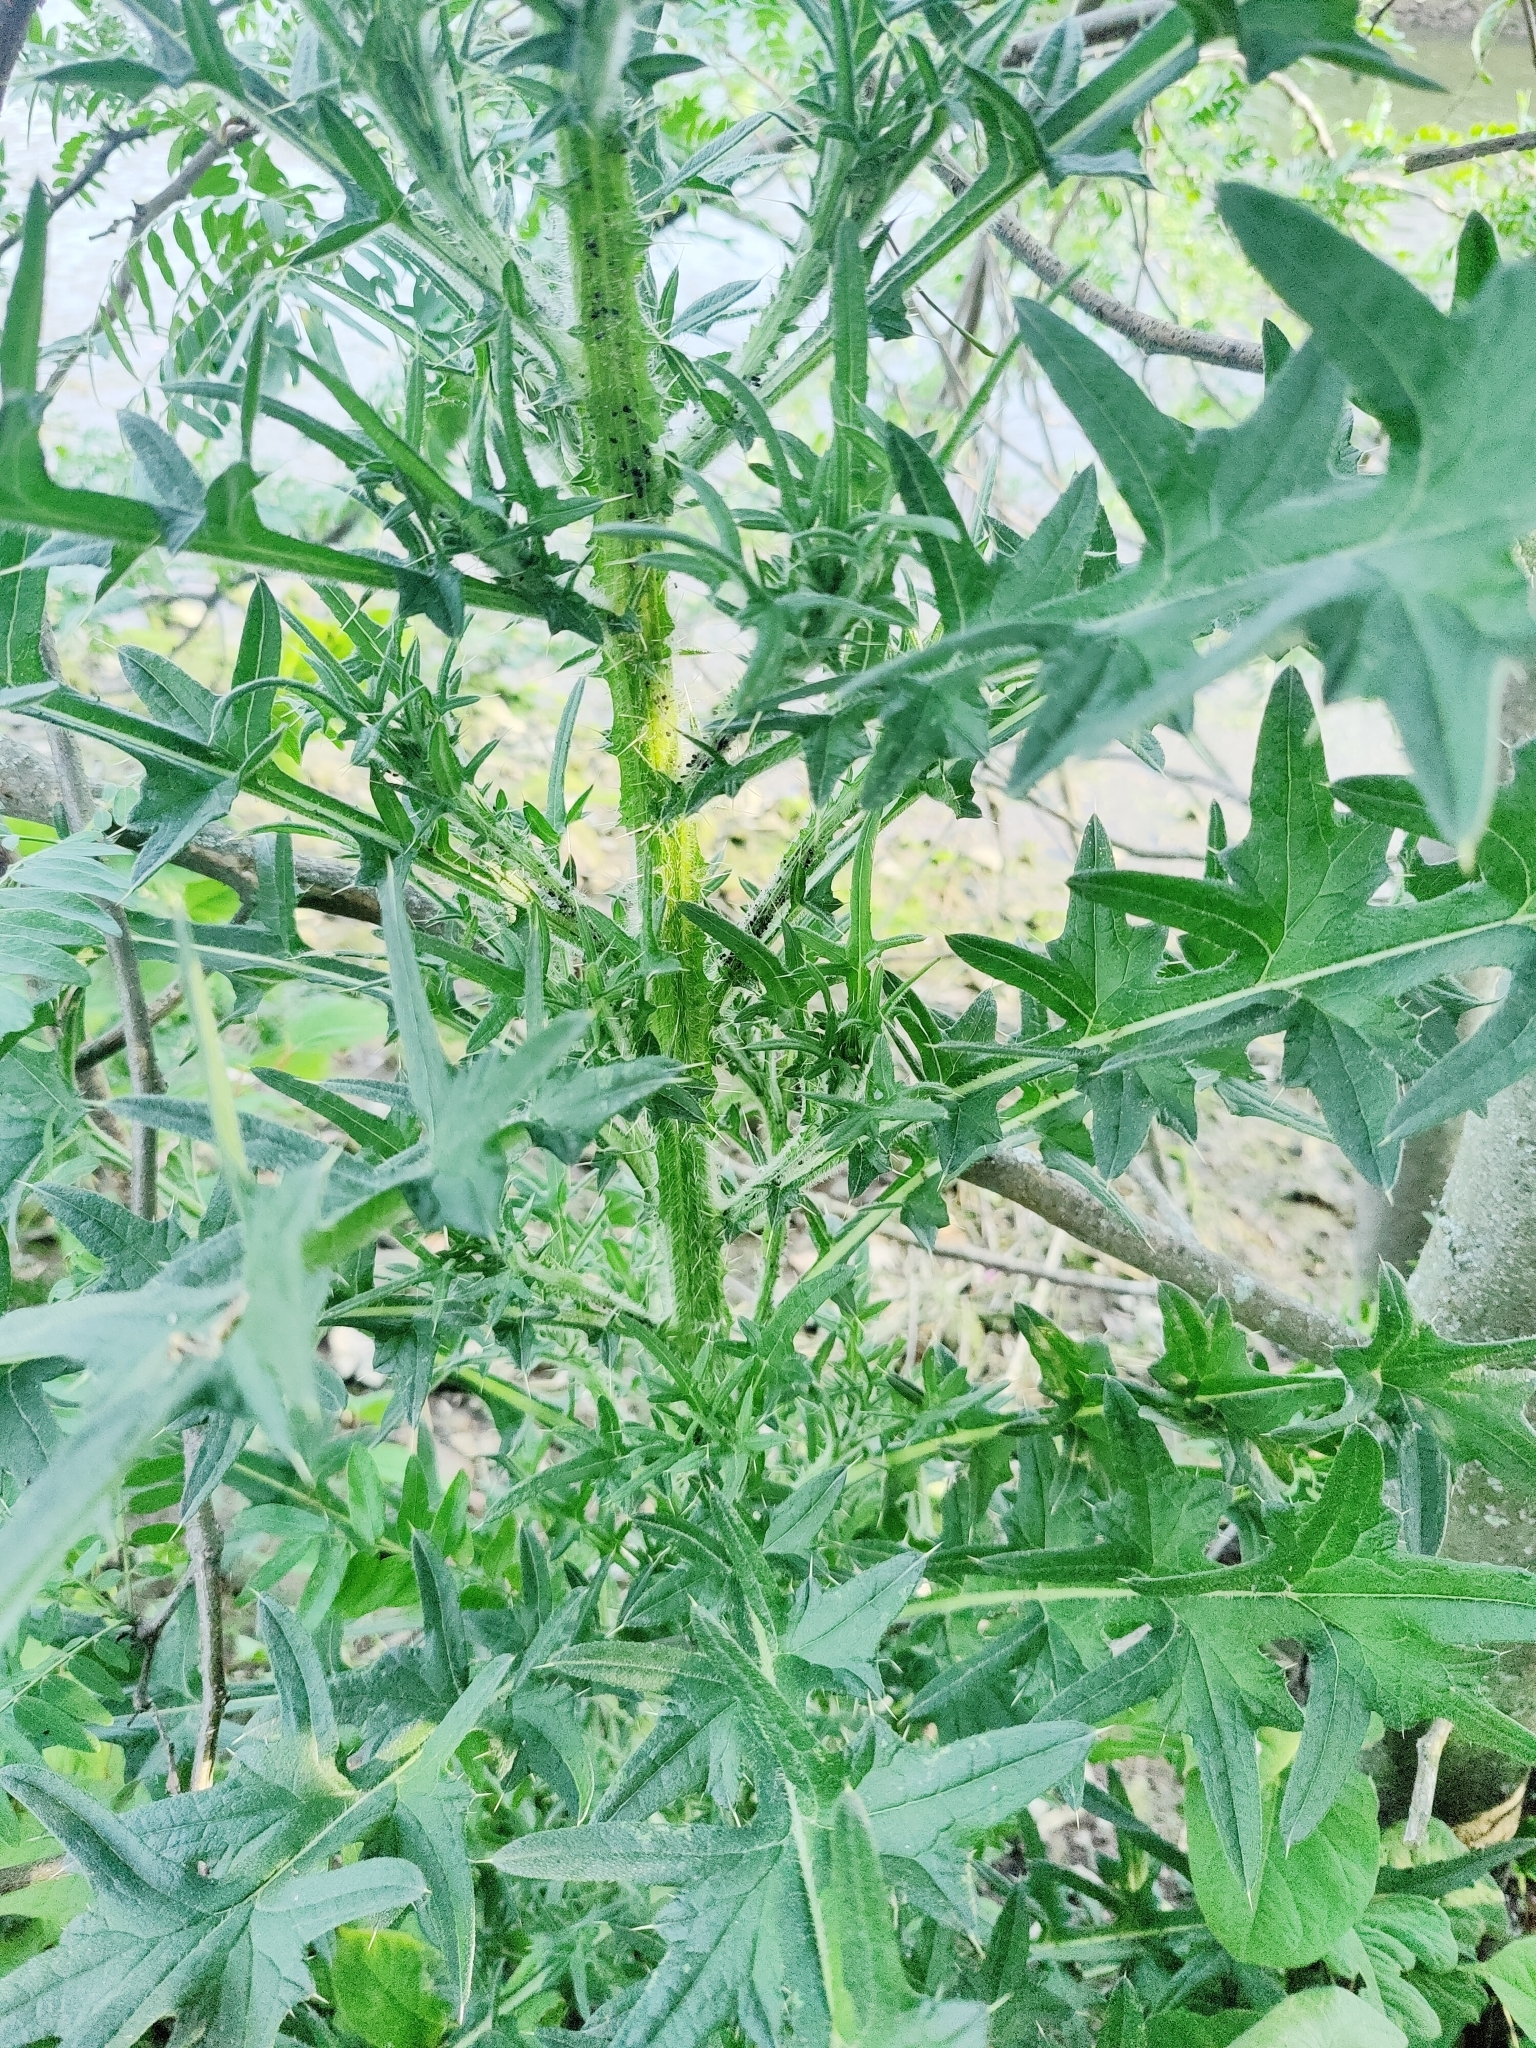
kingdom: Plantae
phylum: Tracheophyta
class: Magnoliopsida
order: Asterales
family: Asteraceae
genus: Cirsium
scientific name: Cirsium vulgare
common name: Bull thistle
